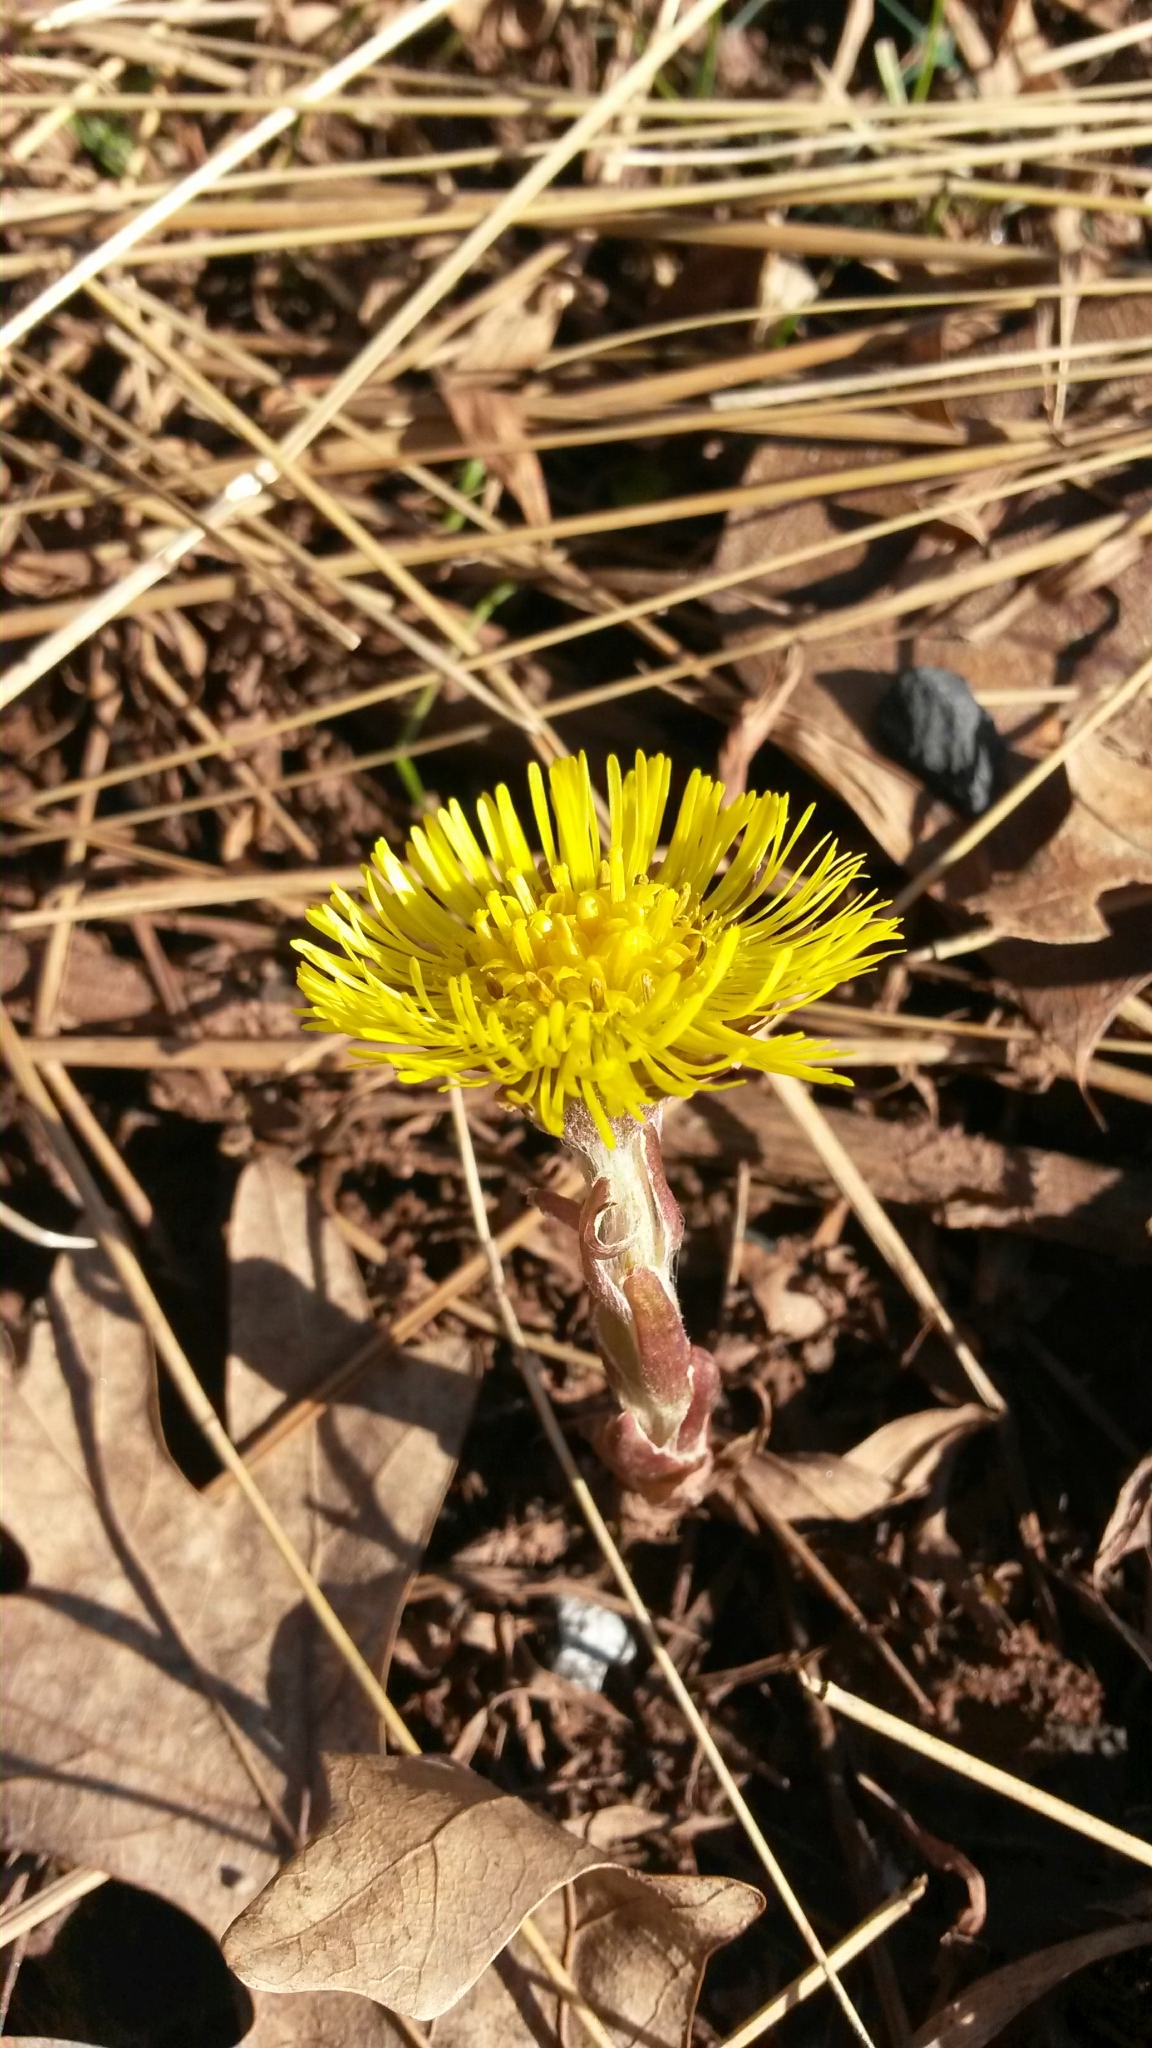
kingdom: Plantae
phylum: Tracheophyta
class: Magnoliopsida
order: Asterales
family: Asteraceae
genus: Tussilago
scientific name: Tussilago farfara
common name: Coltsfoot
